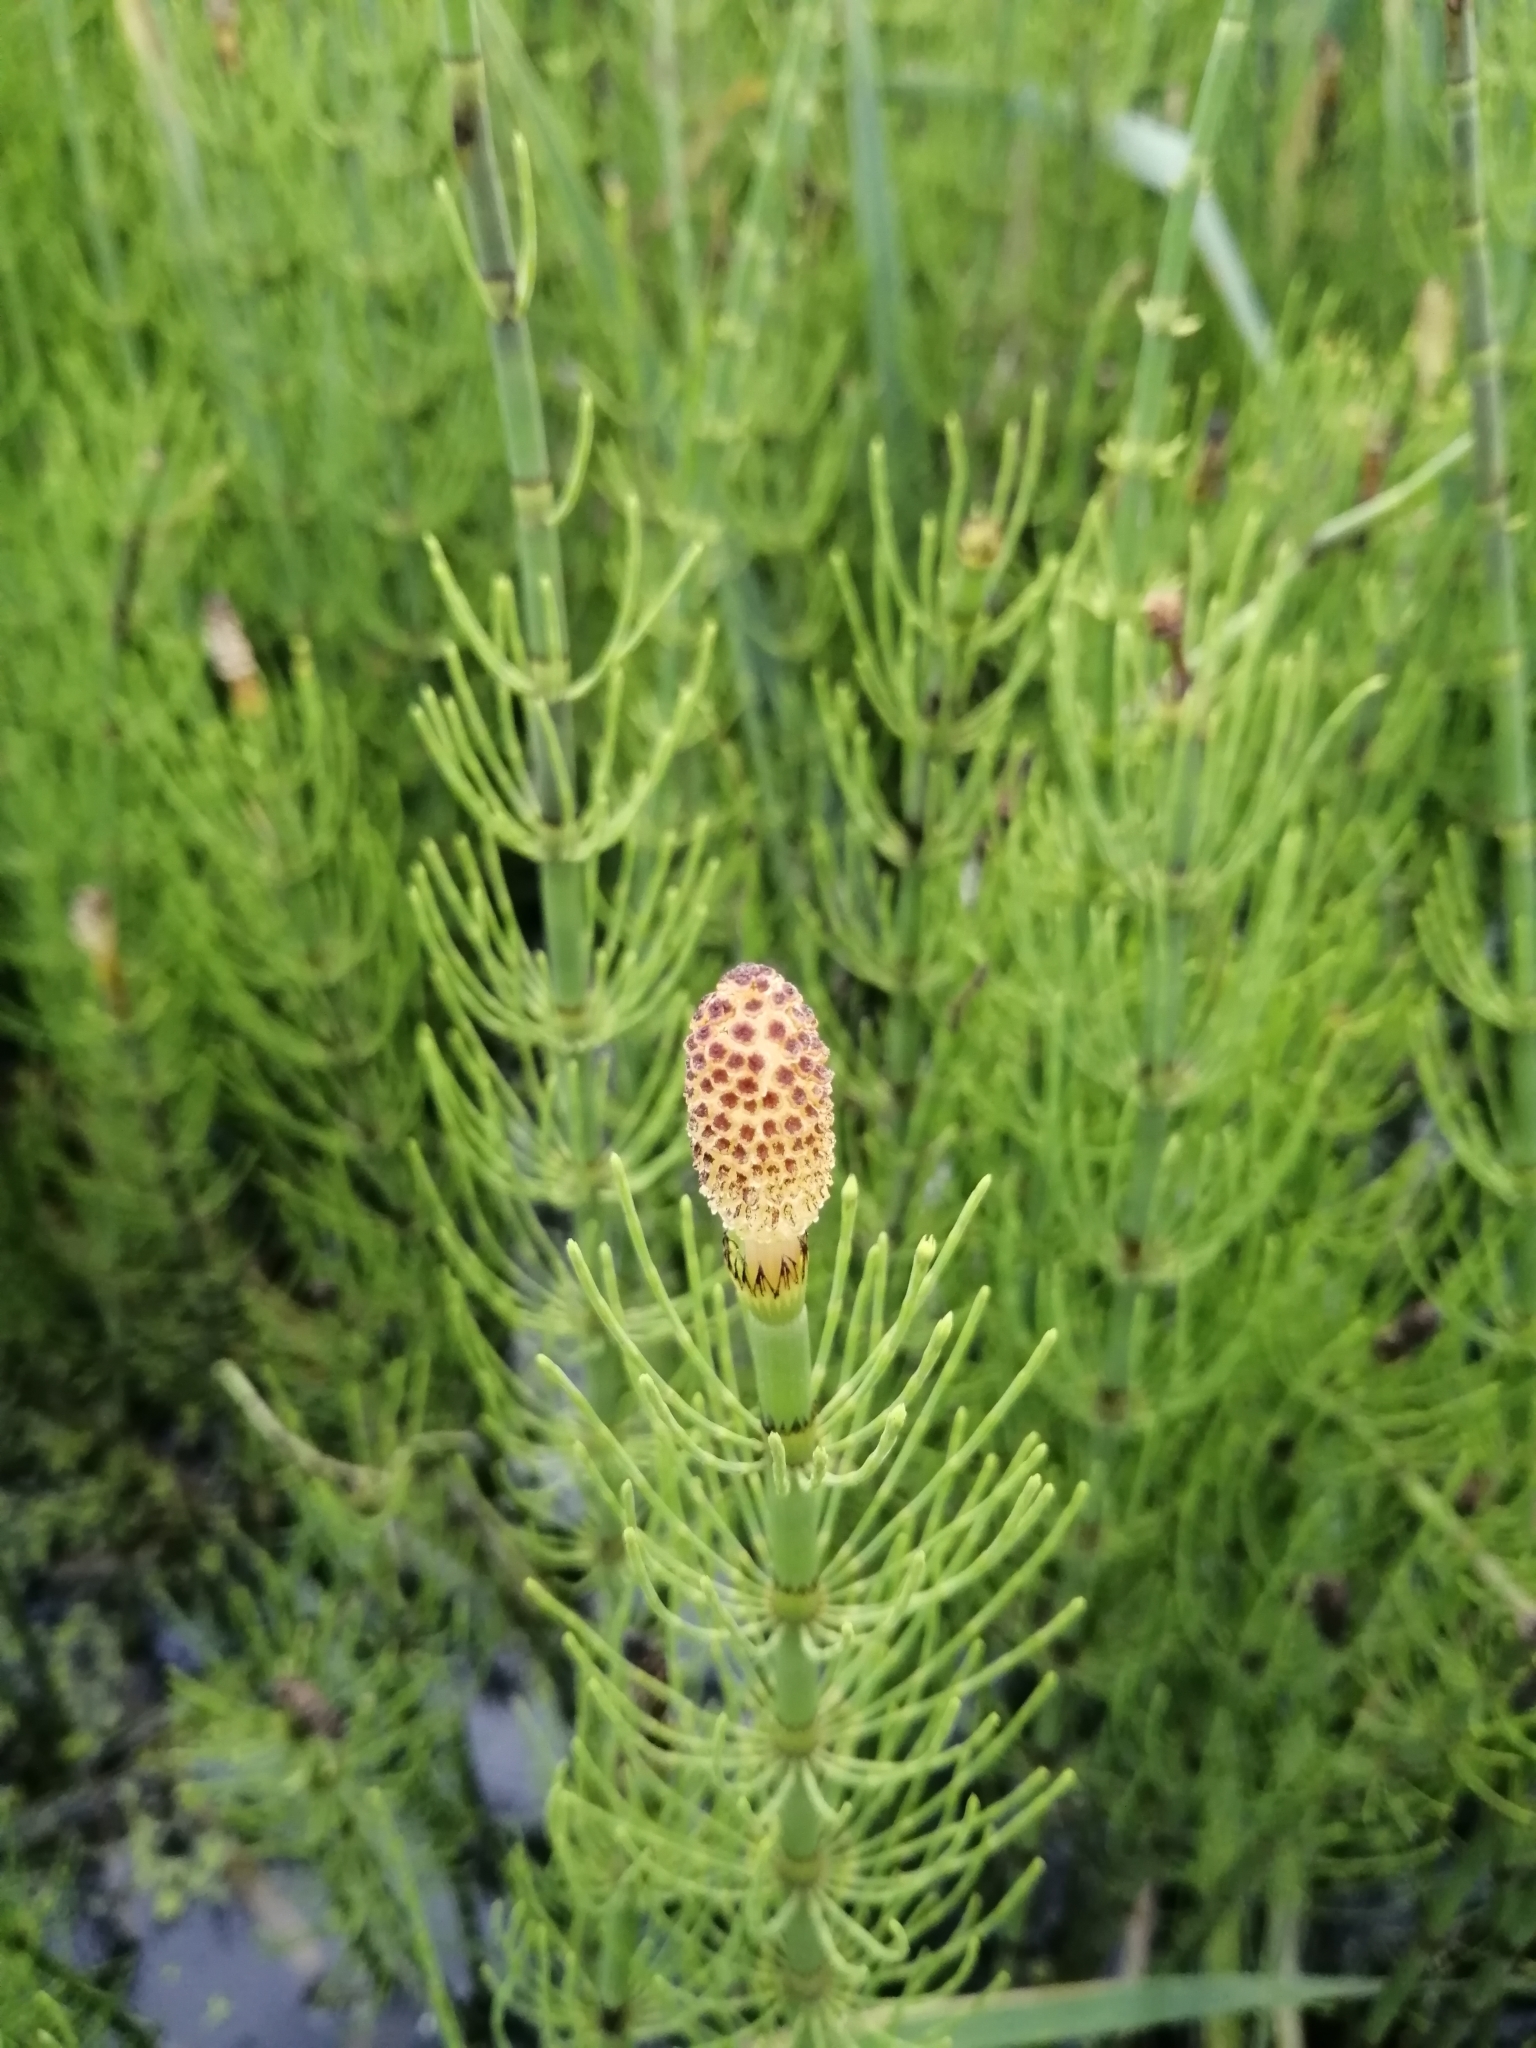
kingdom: Plantae
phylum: Tracheophyta
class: Polypodiopsida
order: Equisetales
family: Equisetaceae
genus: Equisetum
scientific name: Equisetum fluviatile
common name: Water horsetail
